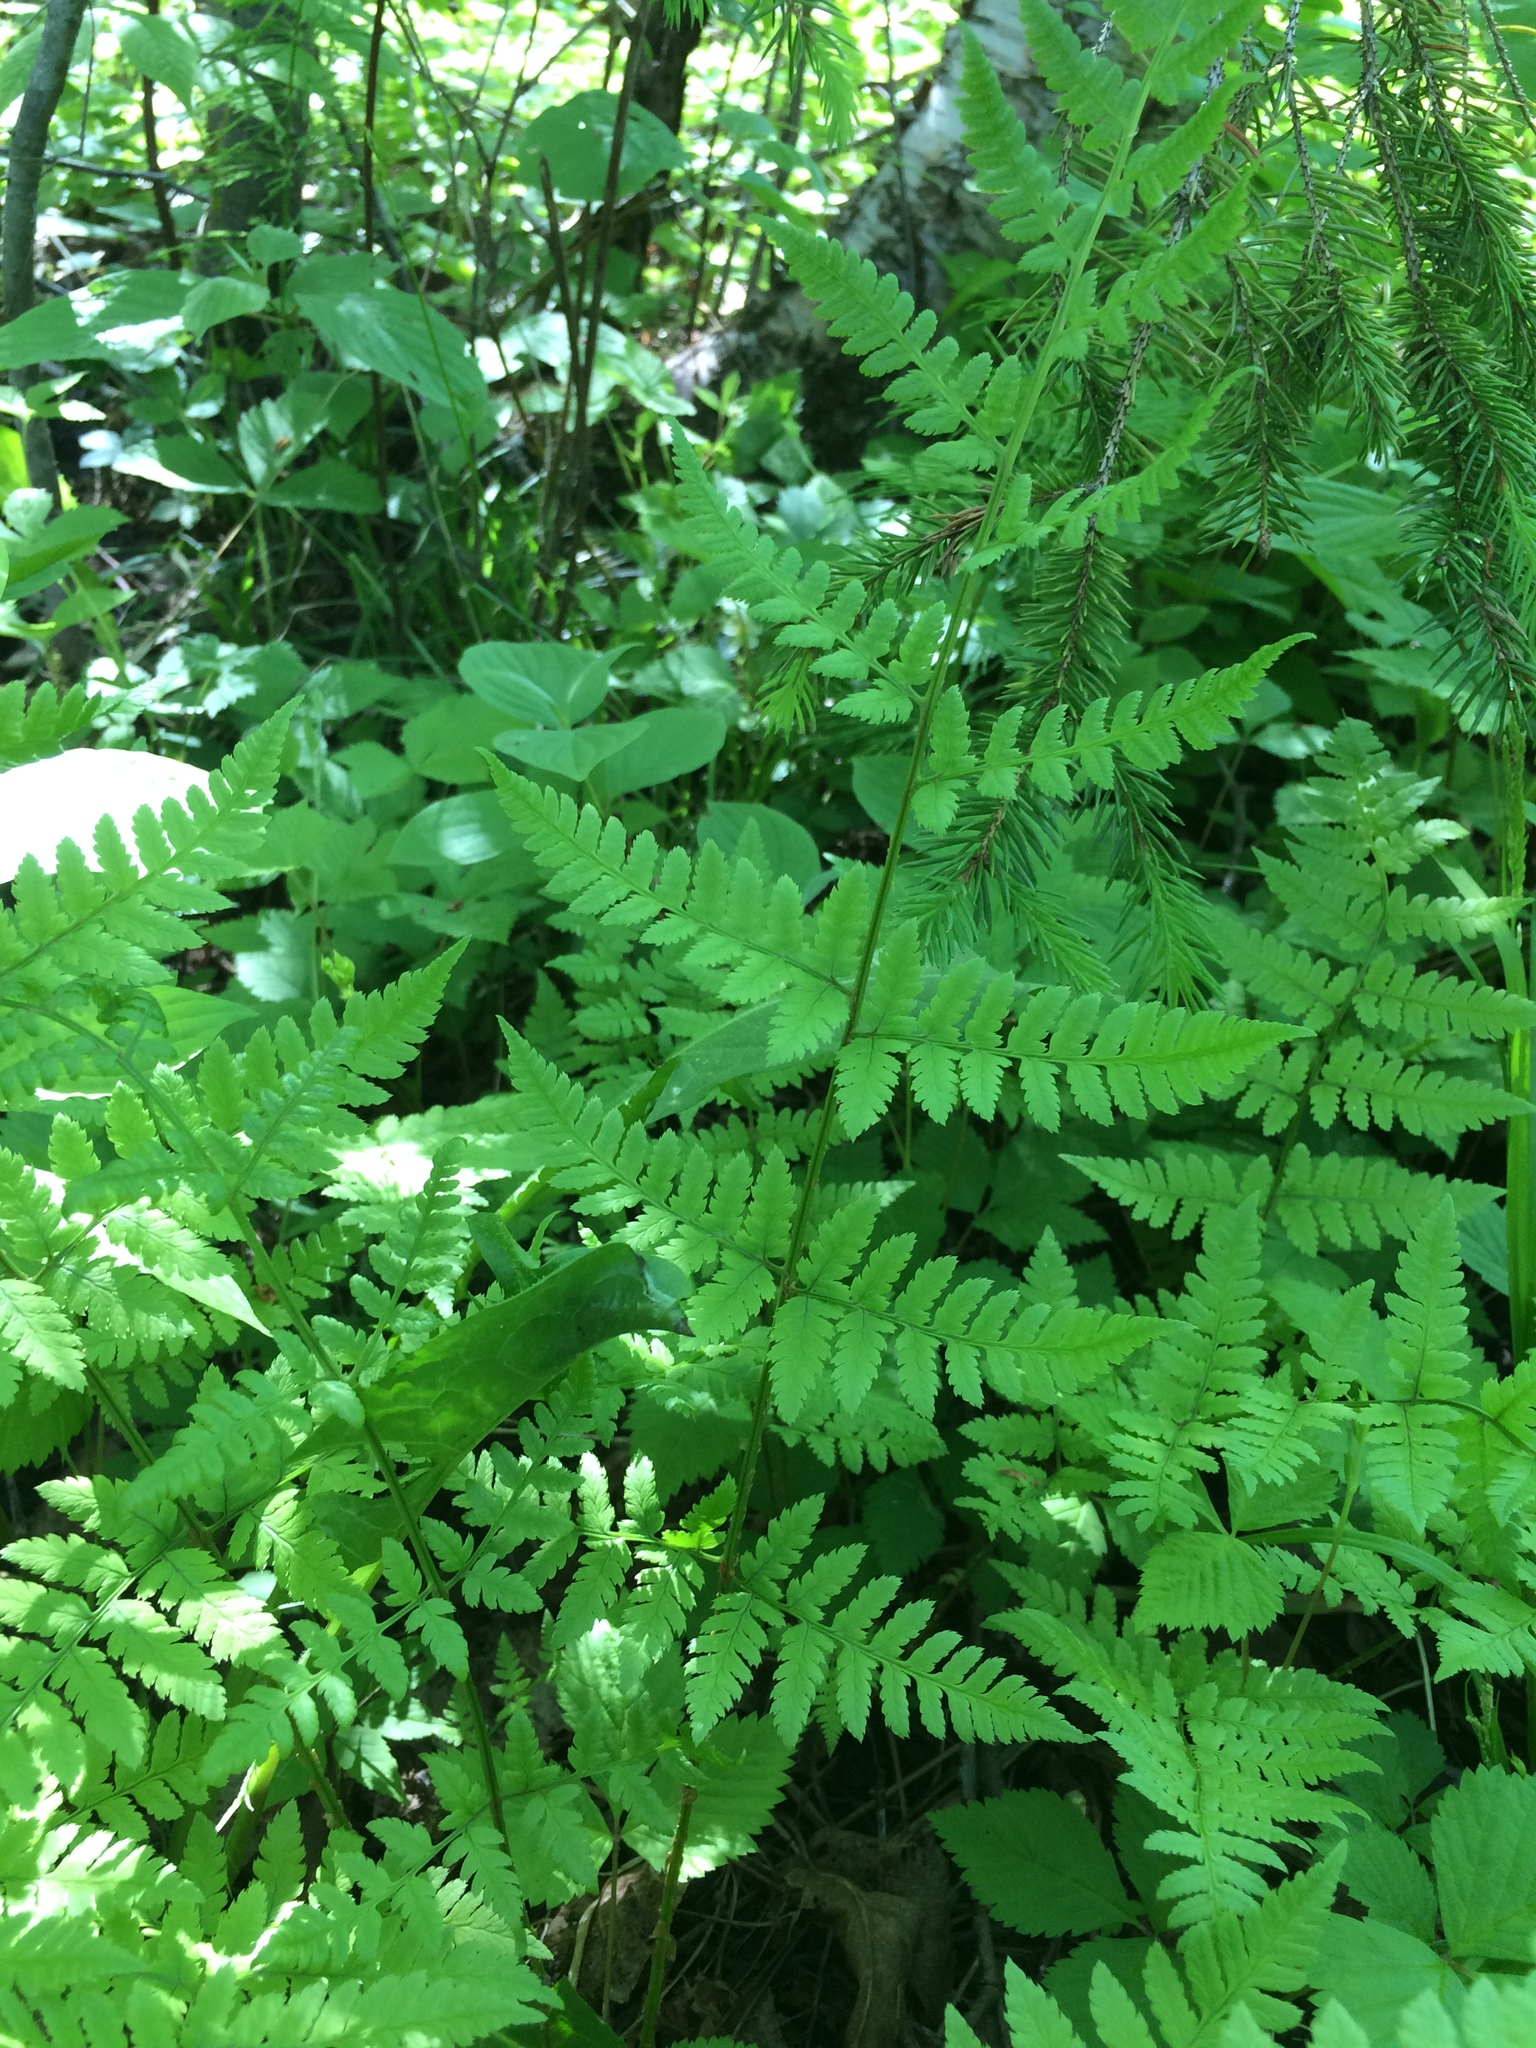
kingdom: Plantae
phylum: Tracheophyta
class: Polypodiopsida
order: Polypodiales
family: Dryopteridaceae
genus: Dryopteris
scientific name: Dryopteris carthusiana
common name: Narrow buckler-fern
